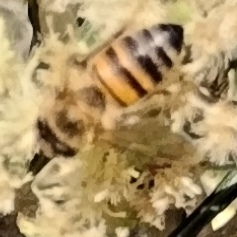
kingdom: Animalia
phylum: Arthropoda
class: Insecta
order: Hymenoptera
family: Apidae
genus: Apis
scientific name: Apis mellifera
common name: Honey bee
